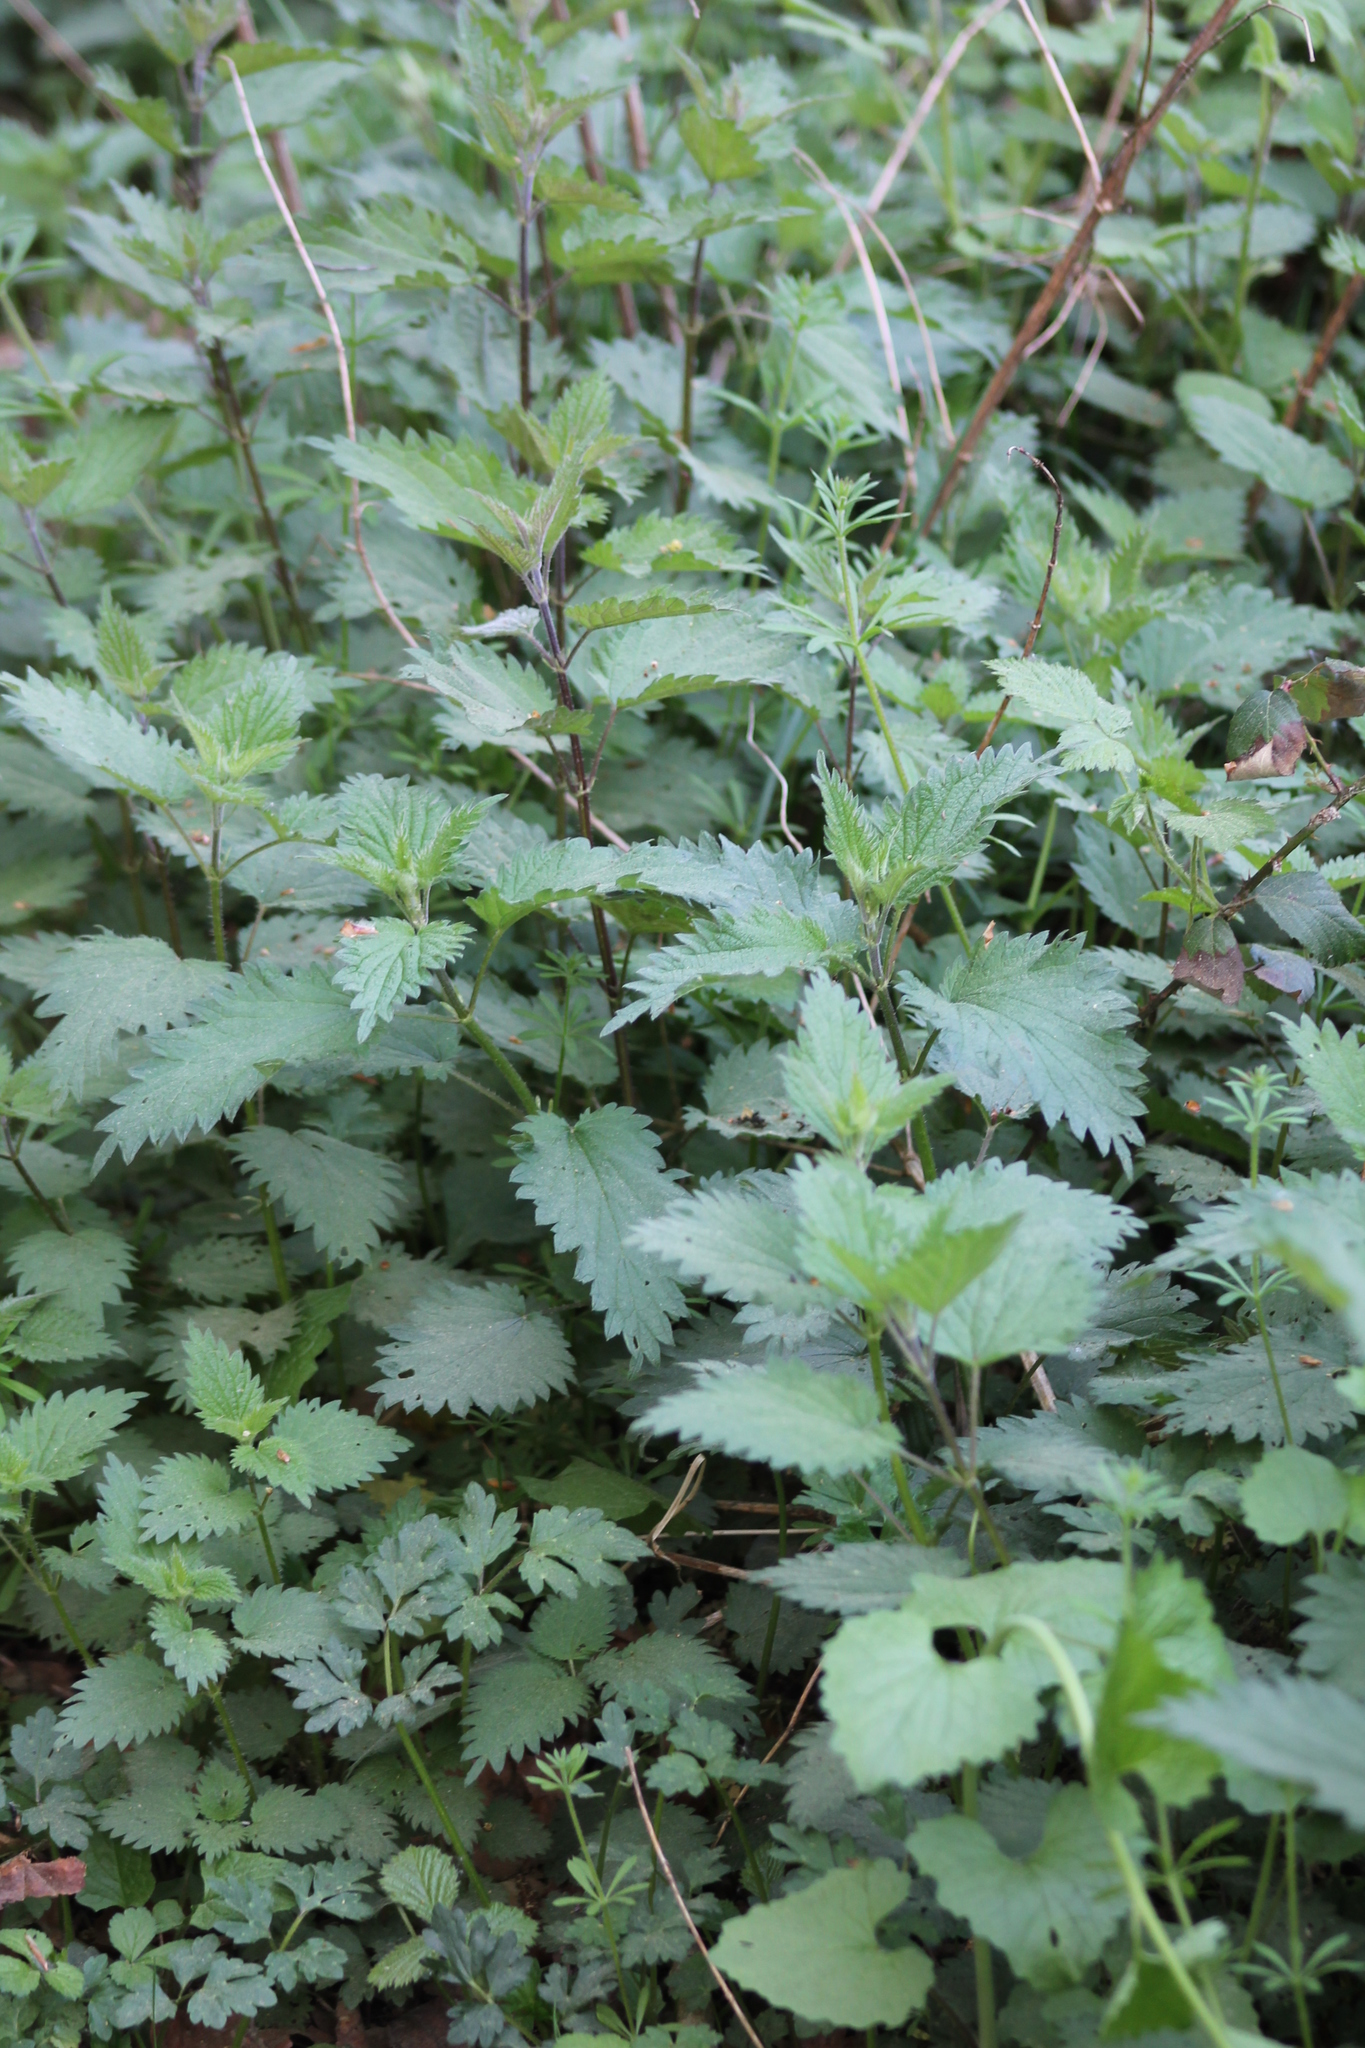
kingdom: Plantae
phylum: Tracheophyta
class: Magnoliopsida
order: Rosales
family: Urticaceae
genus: Urtica
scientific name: Urtica dioica
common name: Common nettle
